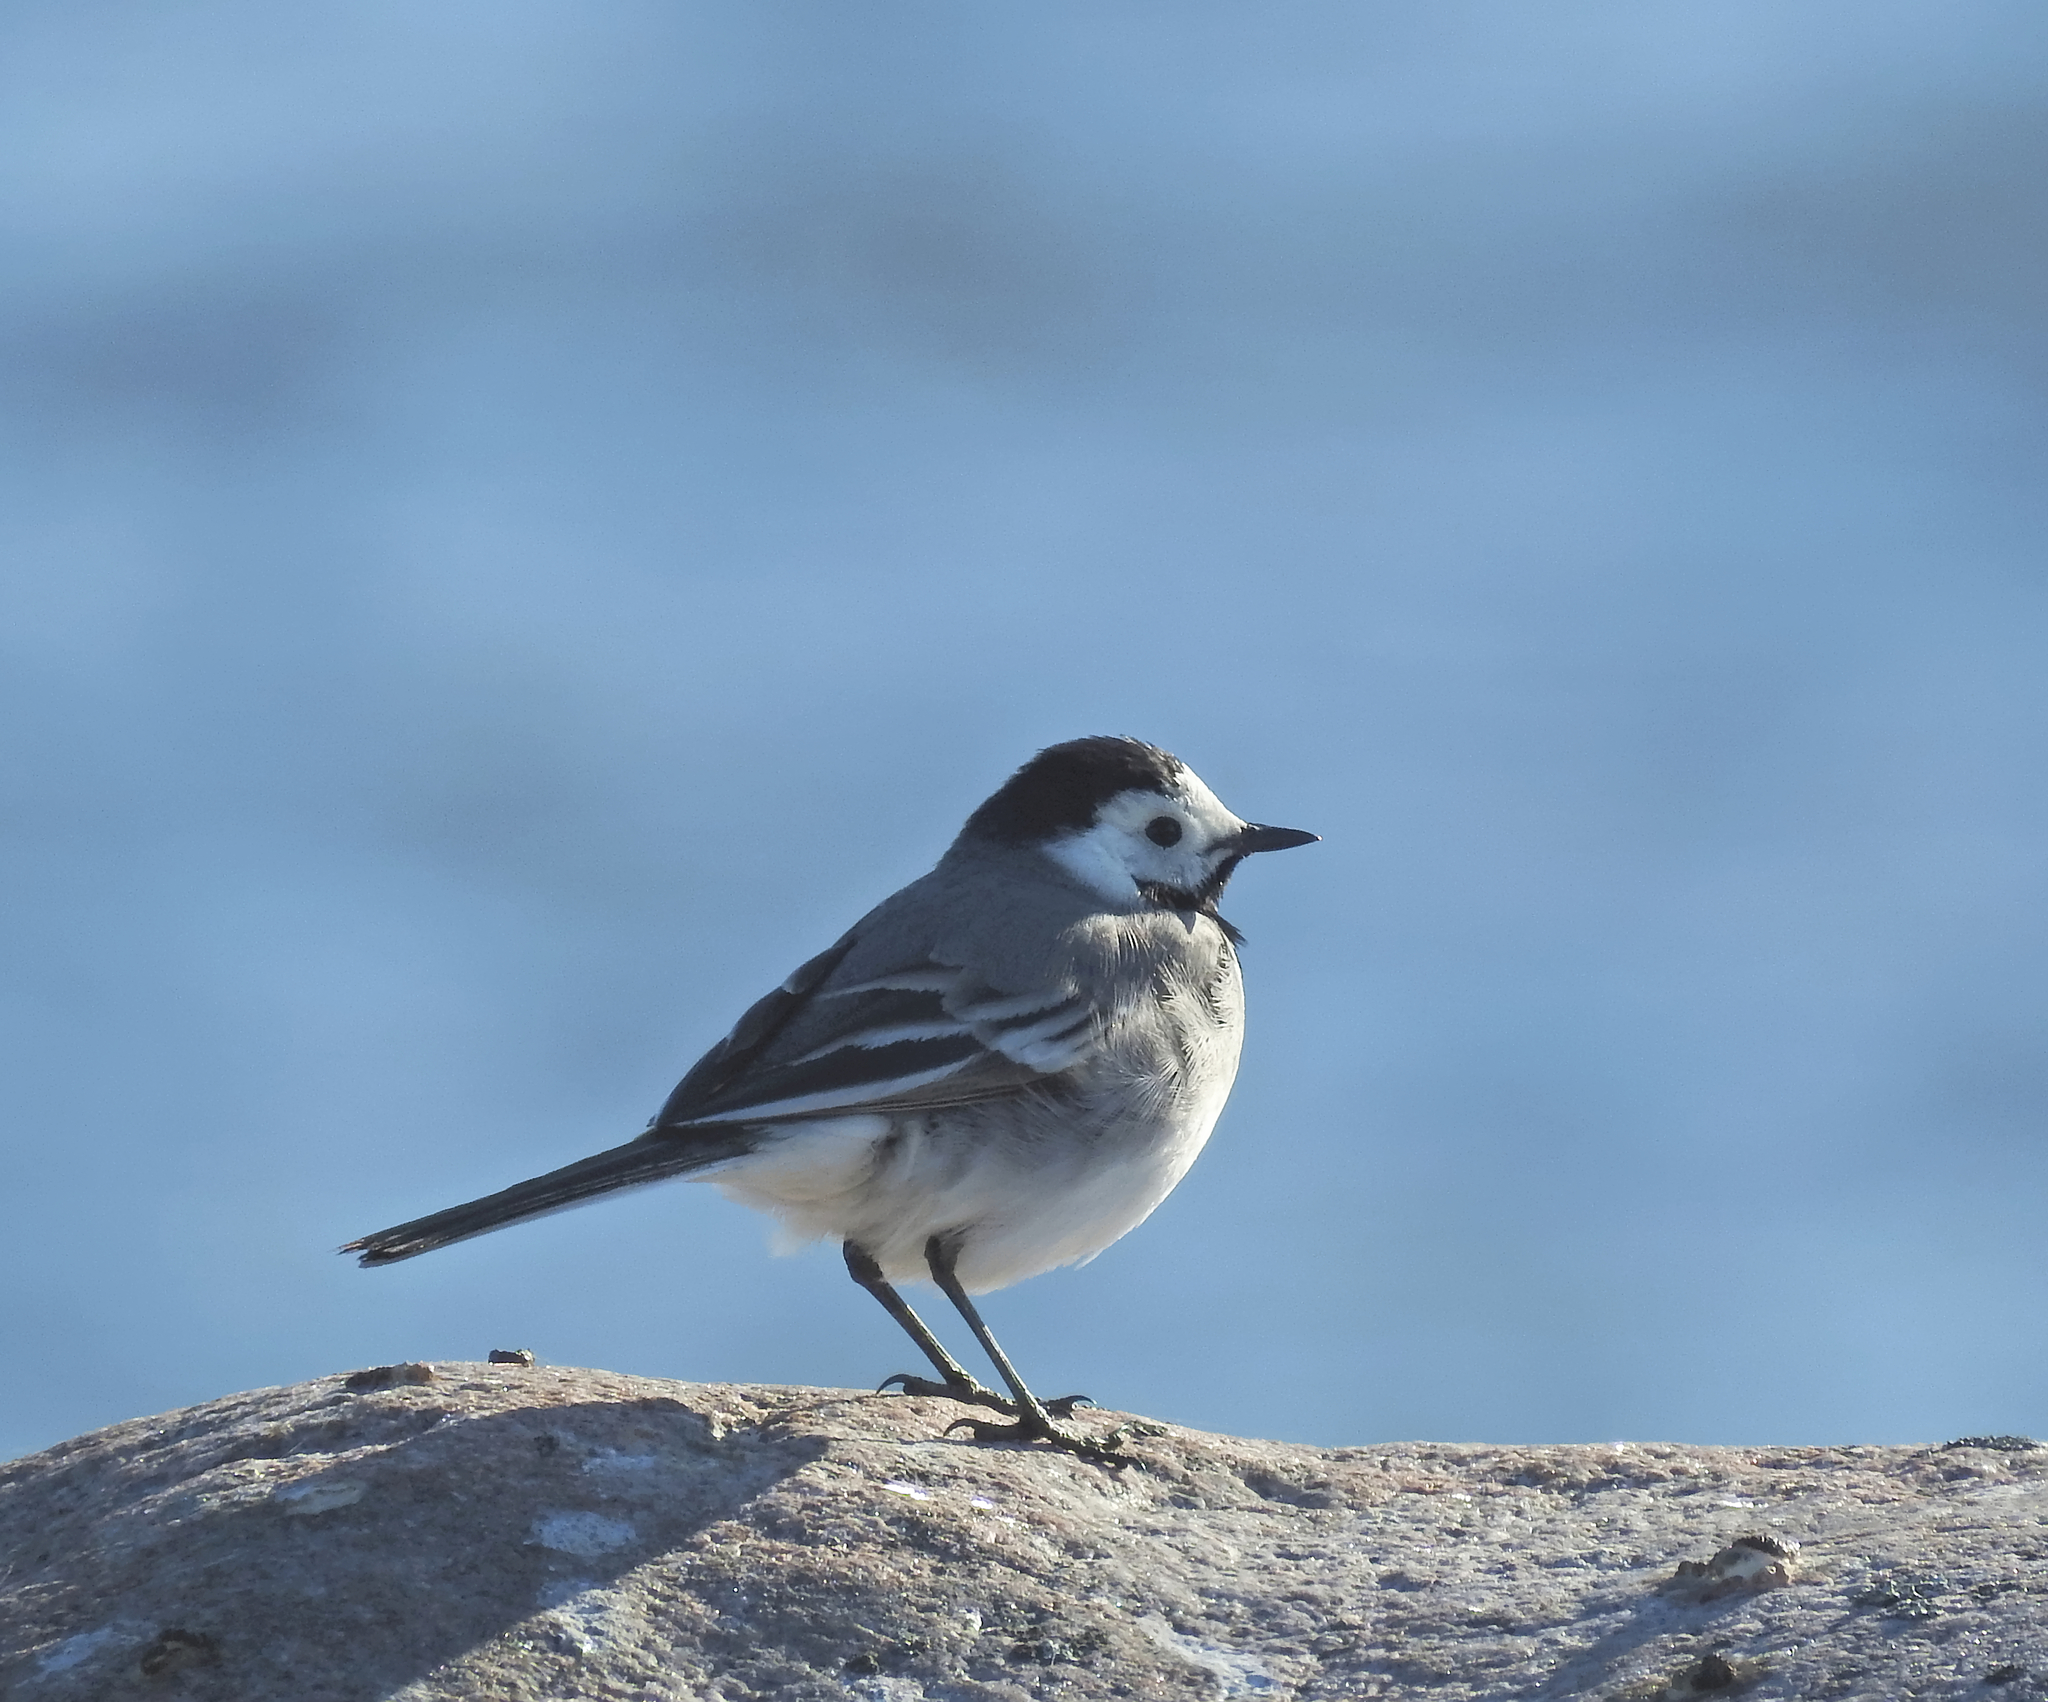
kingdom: Animalia
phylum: Chordata
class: Aves
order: Passeriformes
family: Motacillidae
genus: Motacilla
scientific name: Motacilla alba
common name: White wagtail
